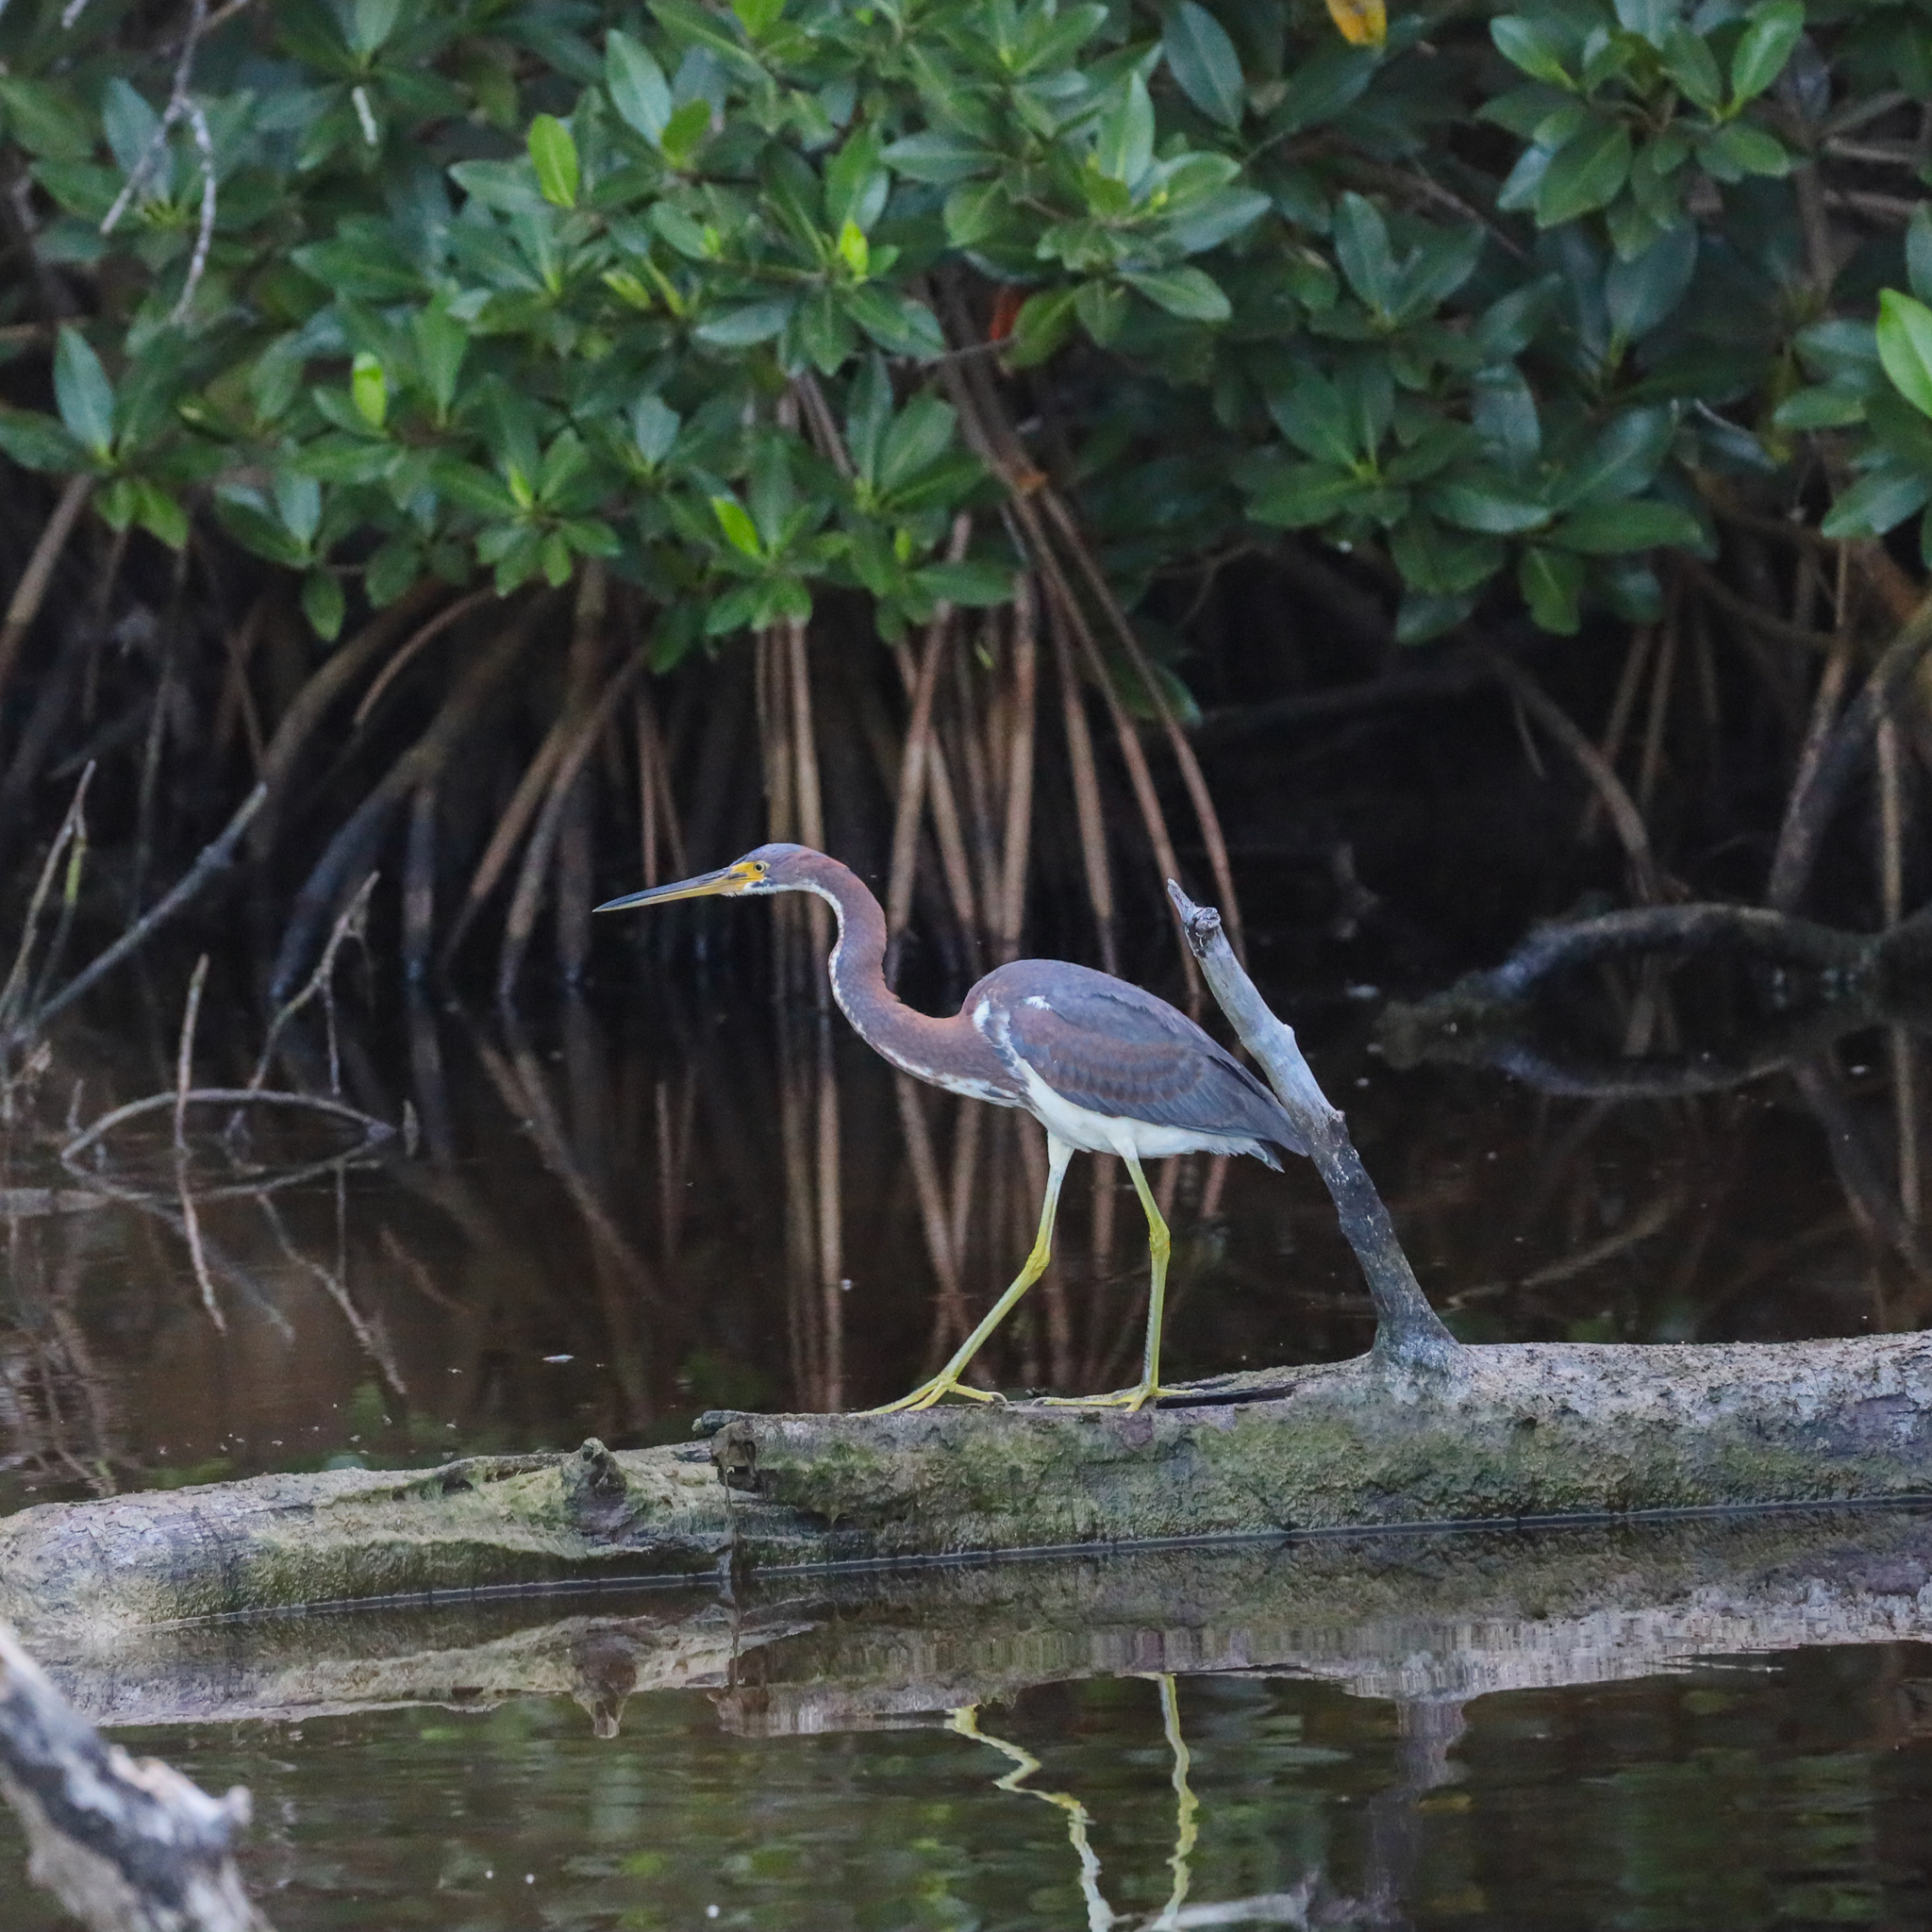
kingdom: Animalia
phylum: Chordata
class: Aves
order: Pelecaniformes
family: Ardeidae
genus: Egretta
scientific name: Egretta tricolor
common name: Tricolored heron
